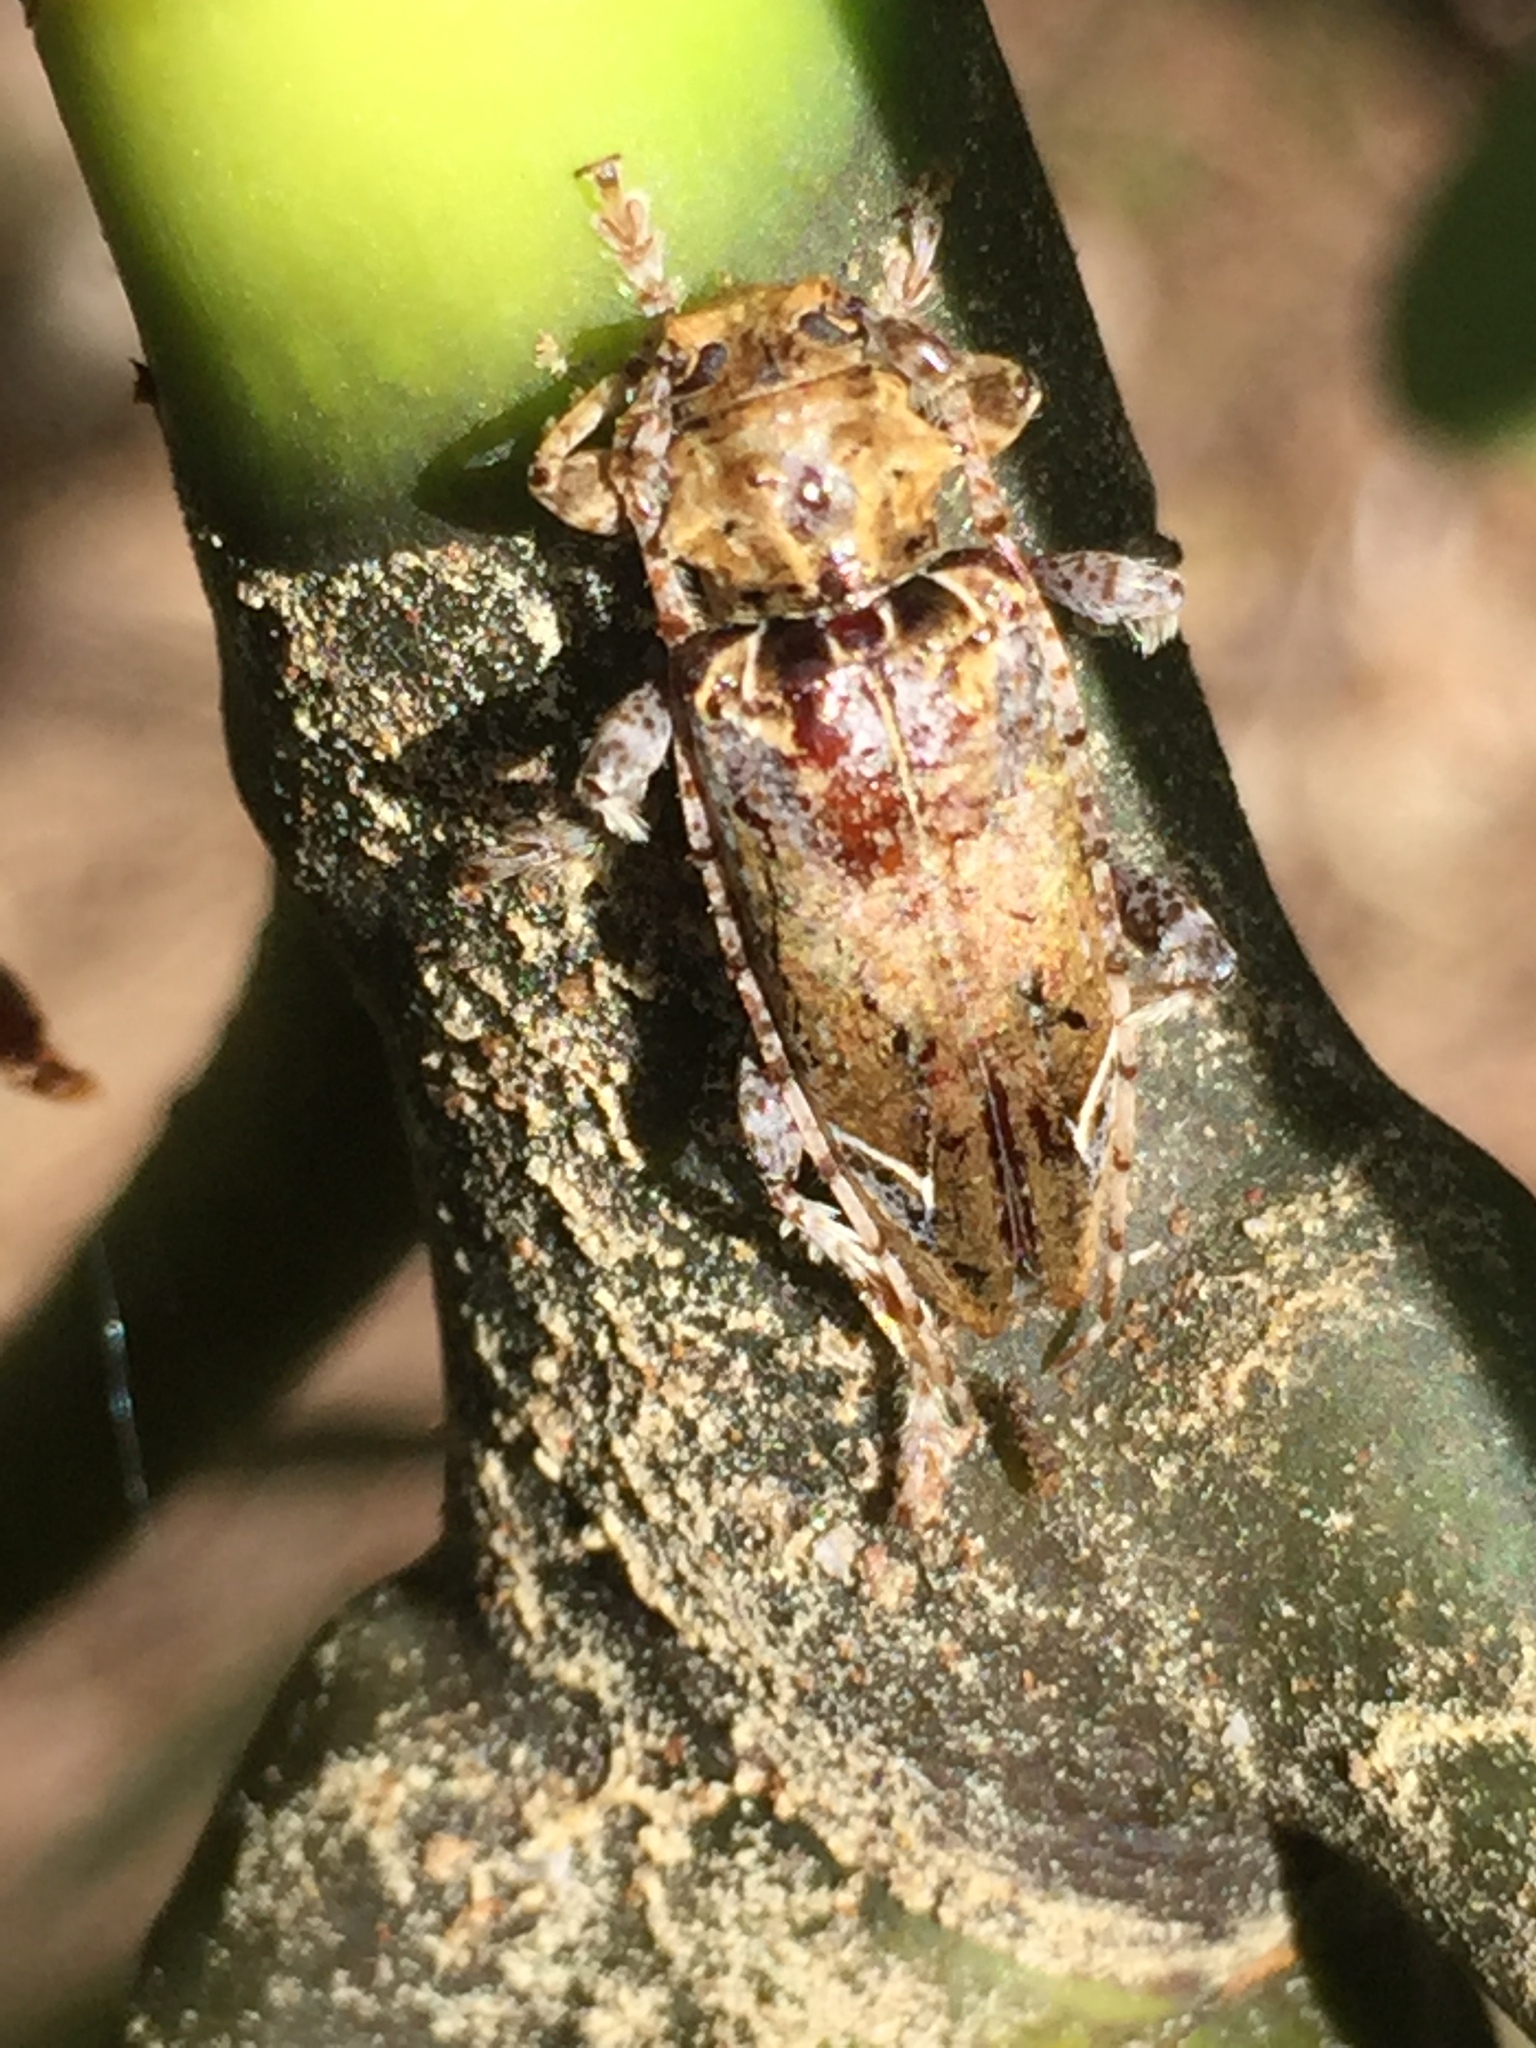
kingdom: Animalia
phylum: Arthropoda
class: Insecta
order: Coleoptera
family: Cerambycidae
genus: Tetrorea
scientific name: Tetrorea cilipes
